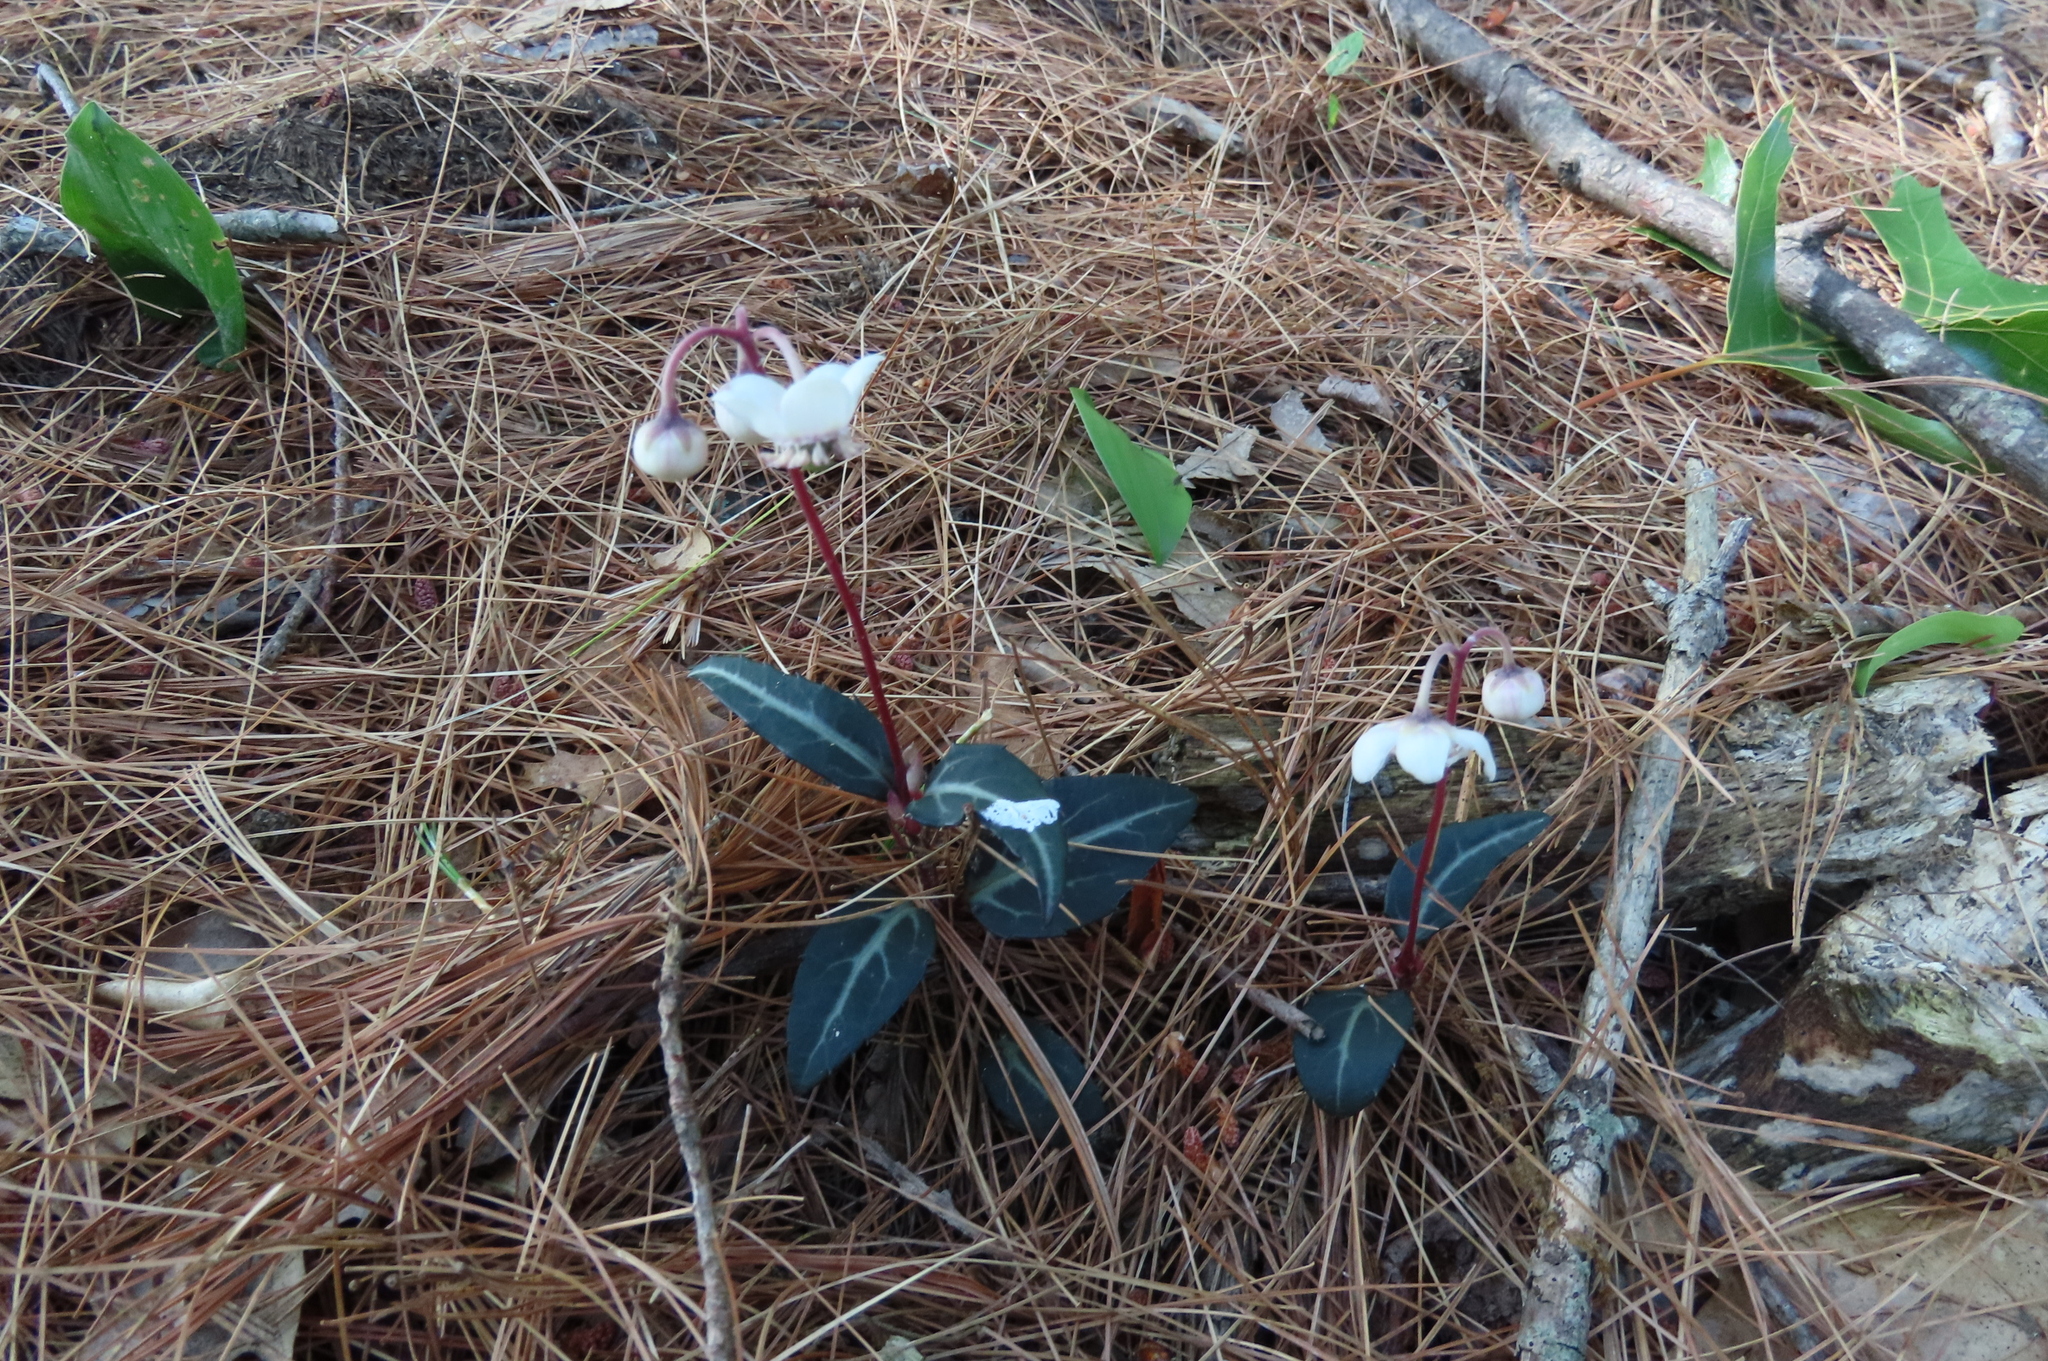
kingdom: Plantae
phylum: Tracheophyta
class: Magnoliopsida
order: Ericales
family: Ericaceae
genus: Chimaphila
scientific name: Chimaphila maculata
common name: Spotted pipsissewa
